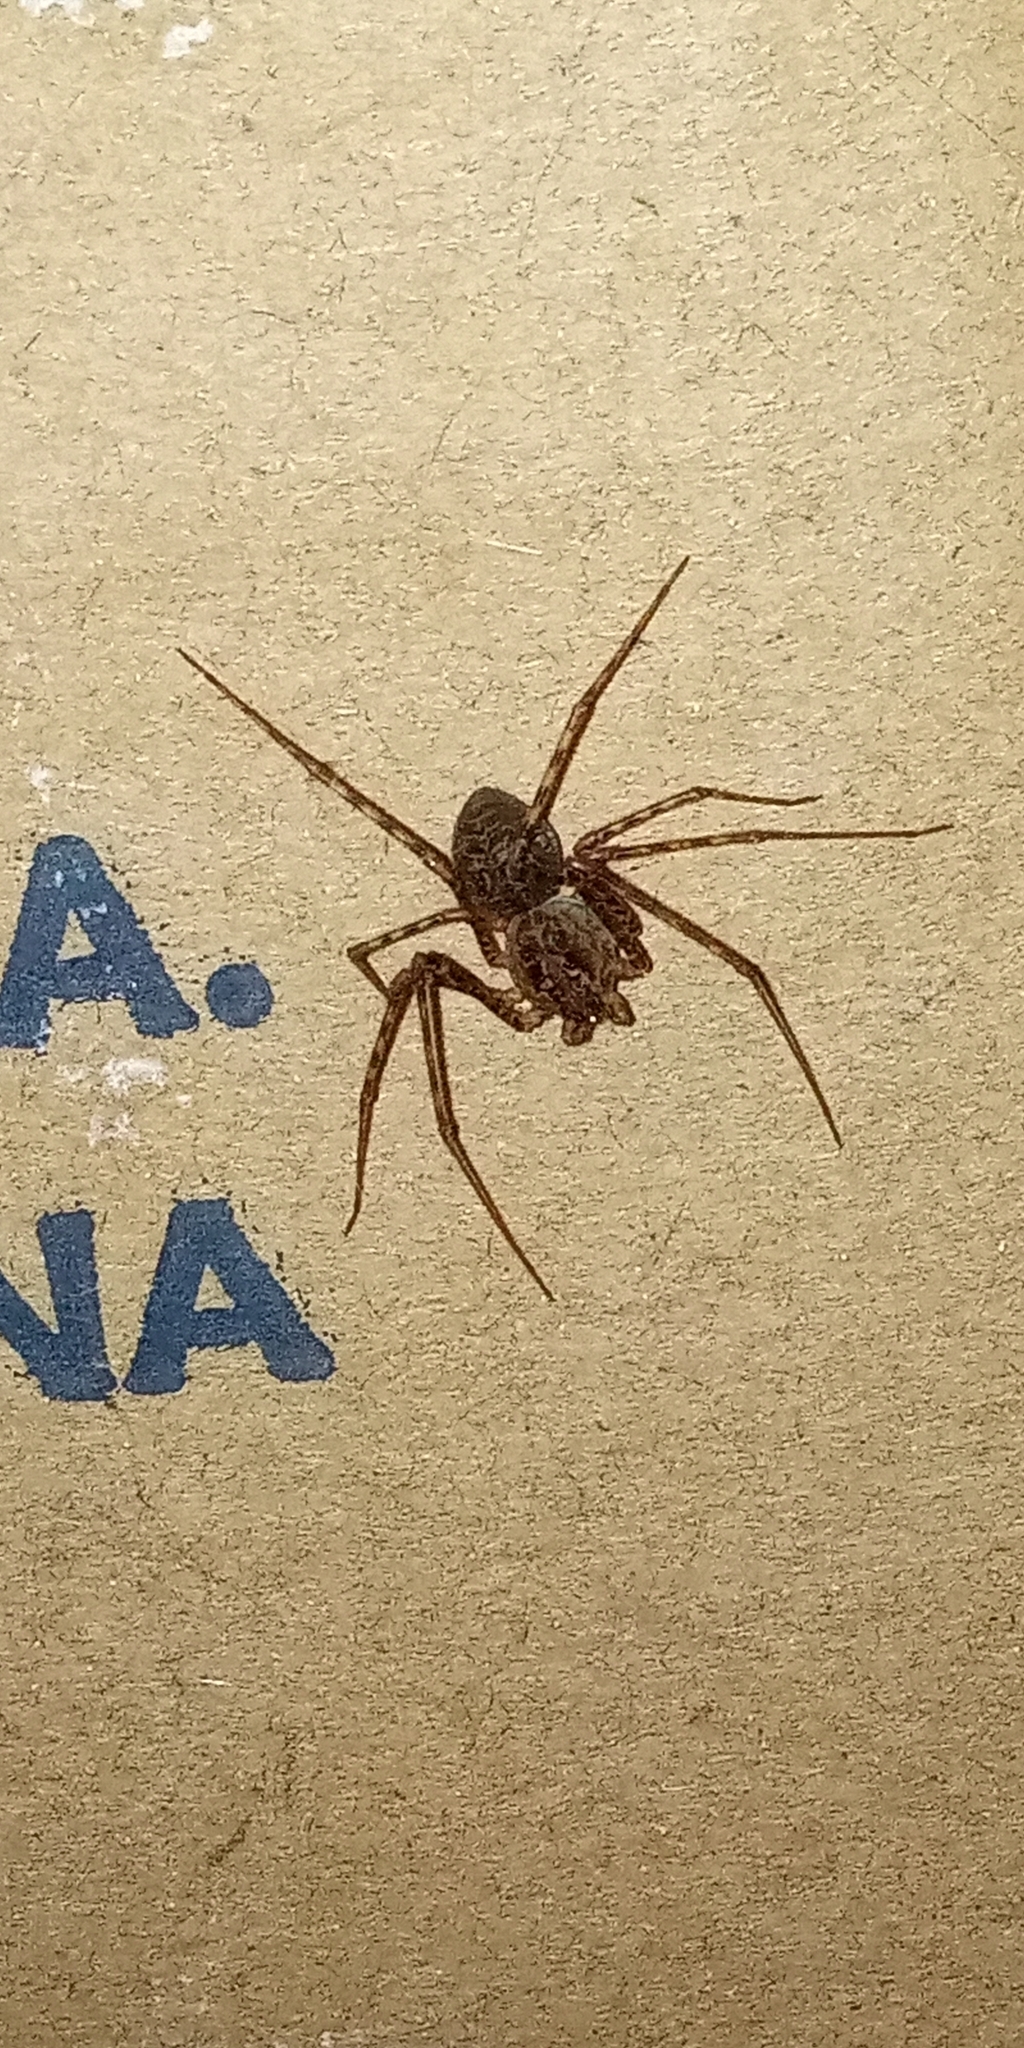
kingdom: Animalia
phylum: Arthropoda
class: Arachnida
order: Araneae
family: Scytodidae
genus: Scytodes
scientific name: Scytodes globula
